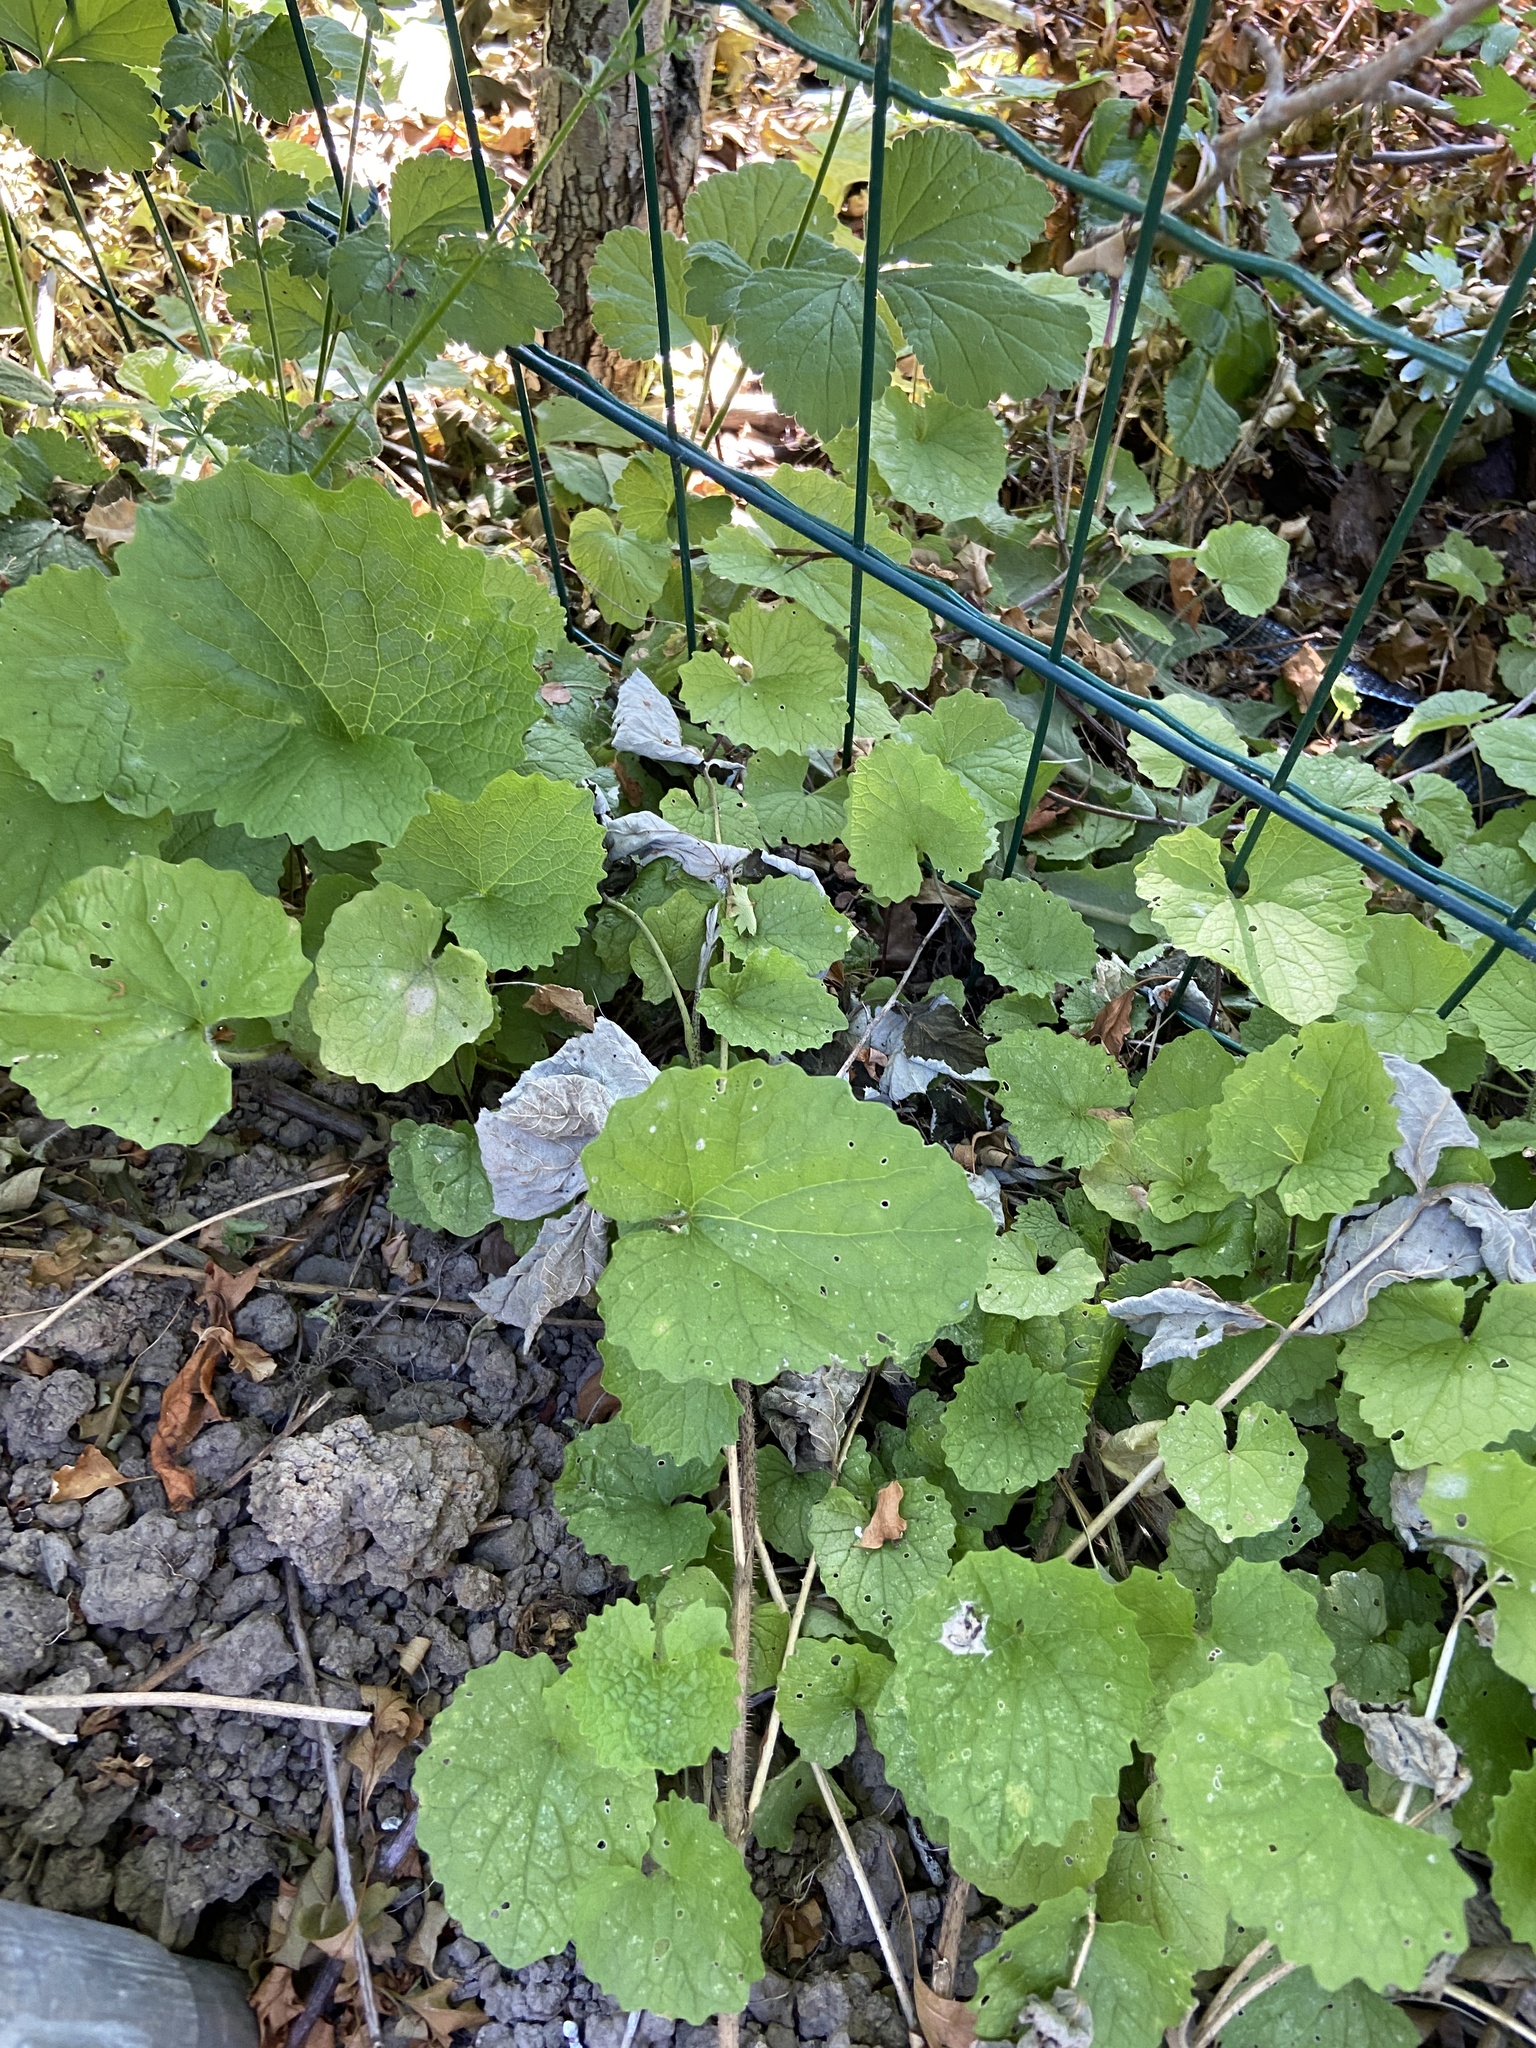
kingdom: Plantae
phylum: Tracheophyta
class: Magnoliopsida
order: Brassicales
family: Brassicaceae
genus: Alliaria
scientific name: Alliaria petiolata
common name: Garlic mustard
